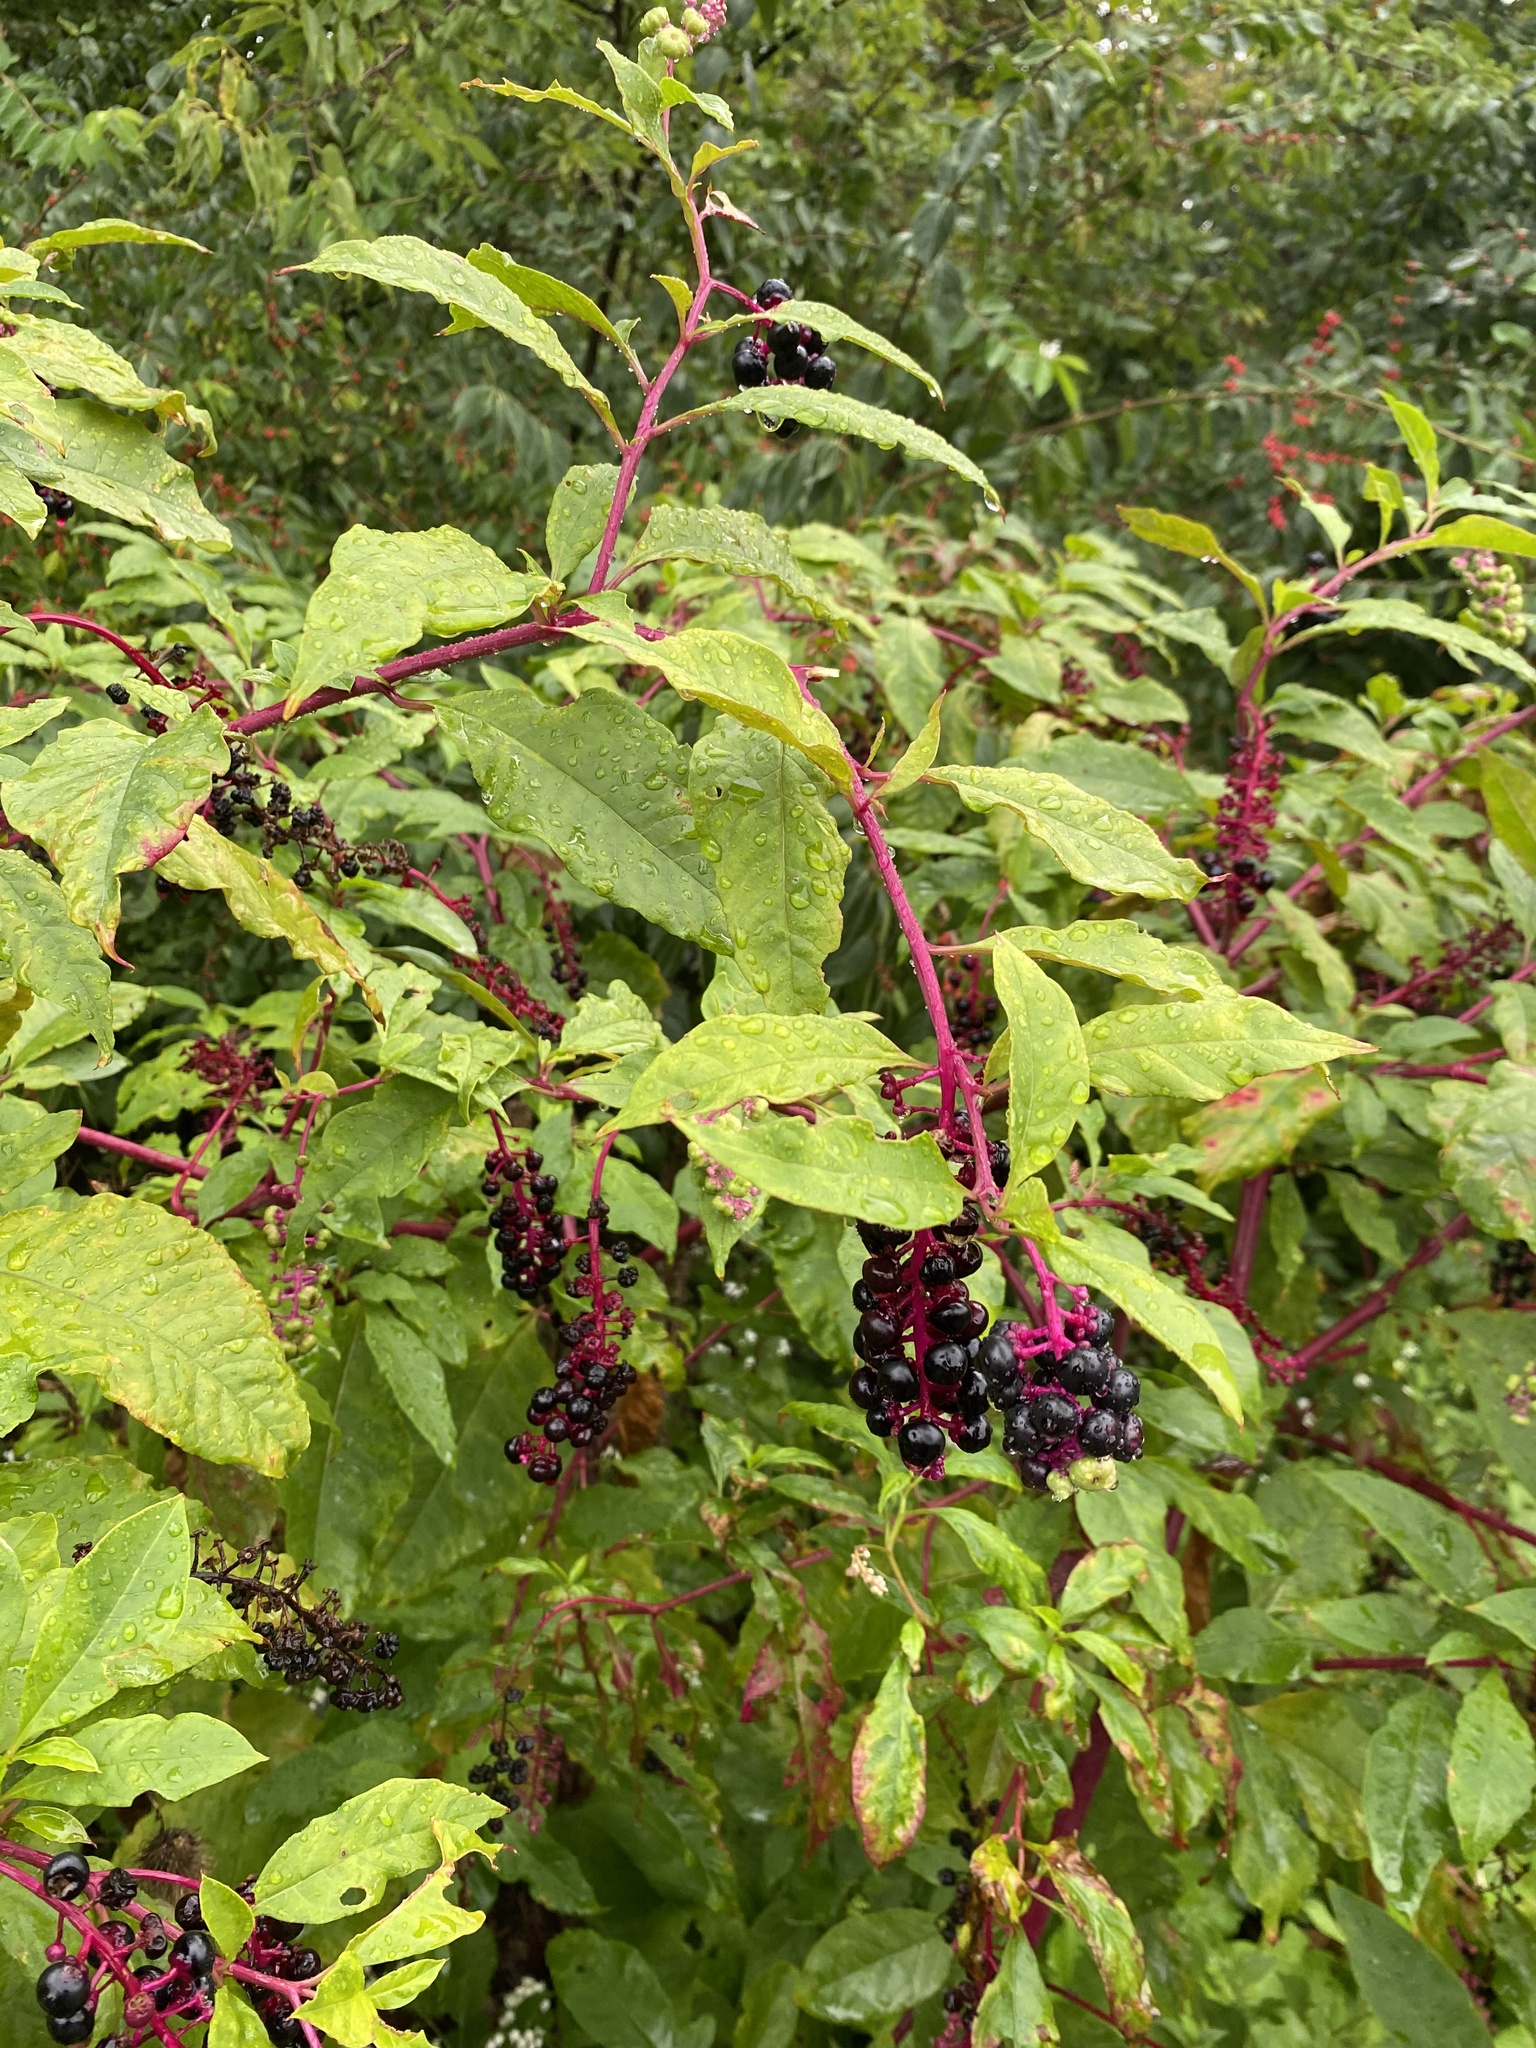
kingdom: Plantae
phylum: Tracheophyta
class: Magnoliopsida
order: Caryophyllales
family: Phytolaccaceae
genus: Phytolacca
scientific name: Phytolacca americana
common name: American pokeweed
